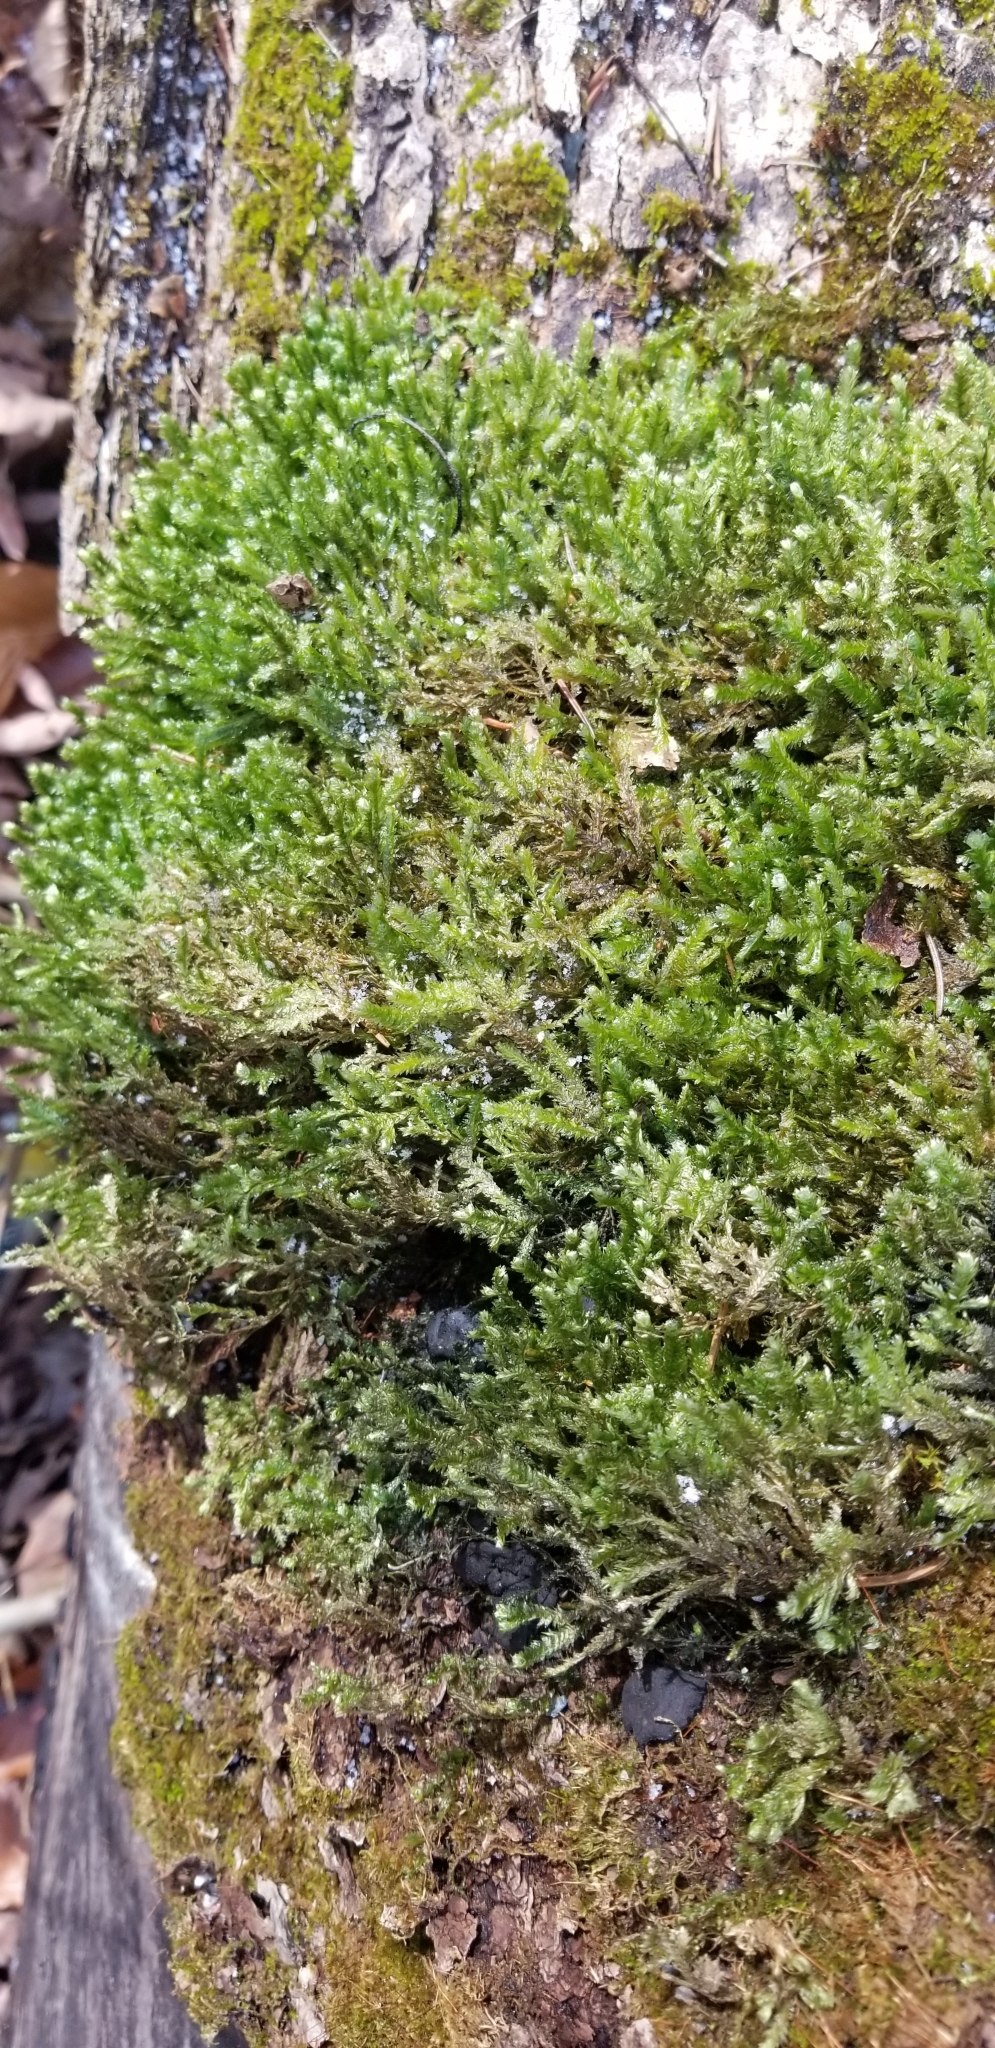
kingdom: Plantae
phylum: Bryophyta
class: Bryopsida
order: Hypnales
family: Neckeraceae
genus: Neckera
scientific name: Neckera pennata
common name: Feathery neckera
